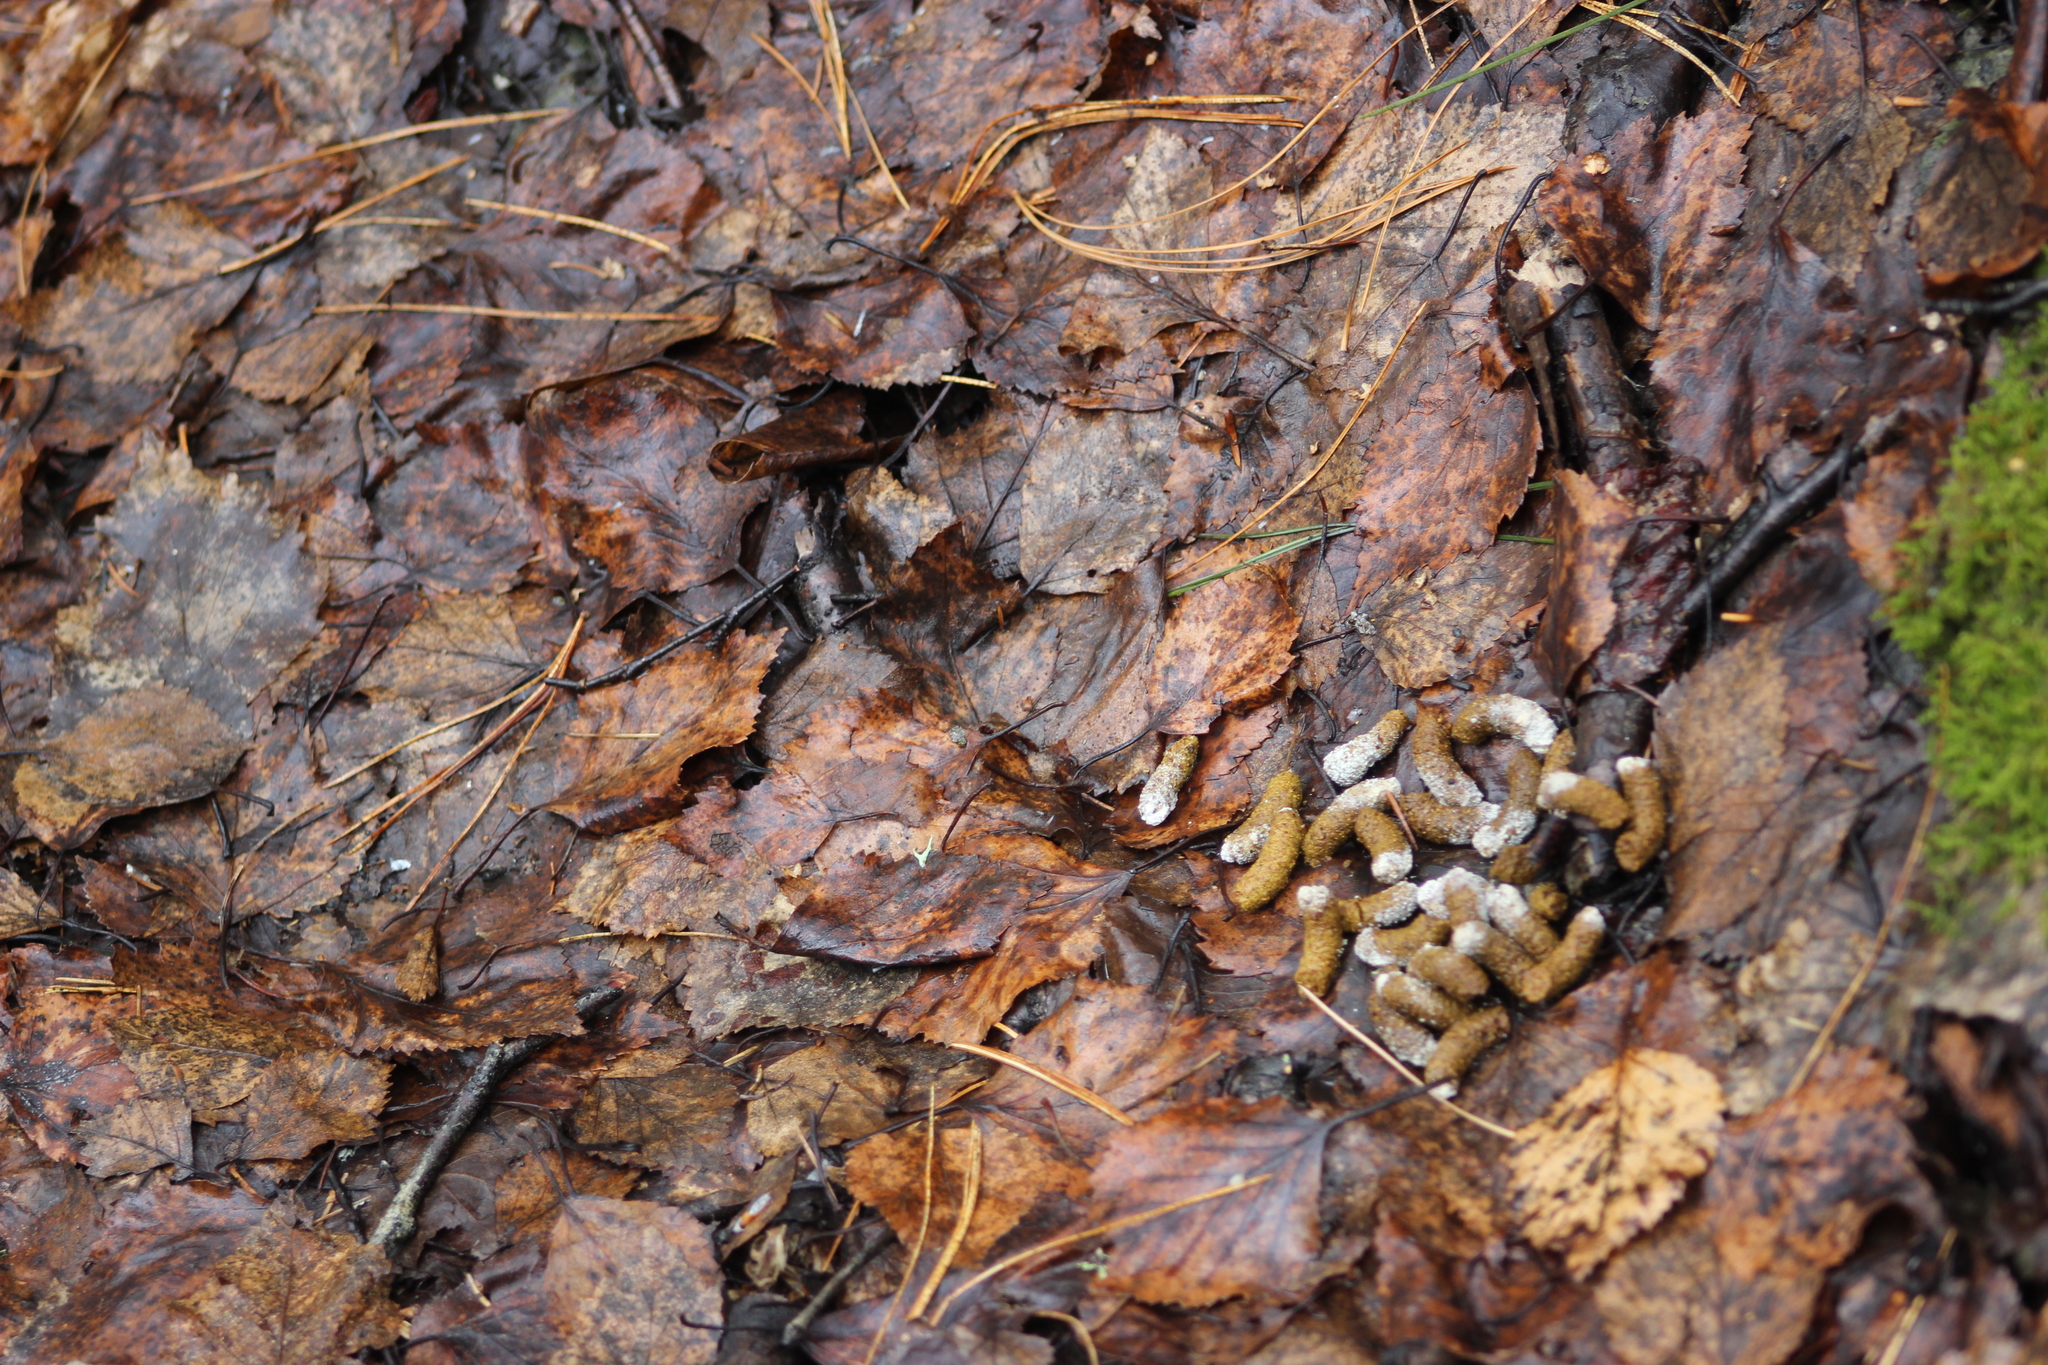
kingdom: Animalia
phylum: Chordata
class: Aves
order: Galliformes
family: Phasianidae
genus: Tetrastes
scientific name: Tetrastes bonasia
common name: Hazel grouse
